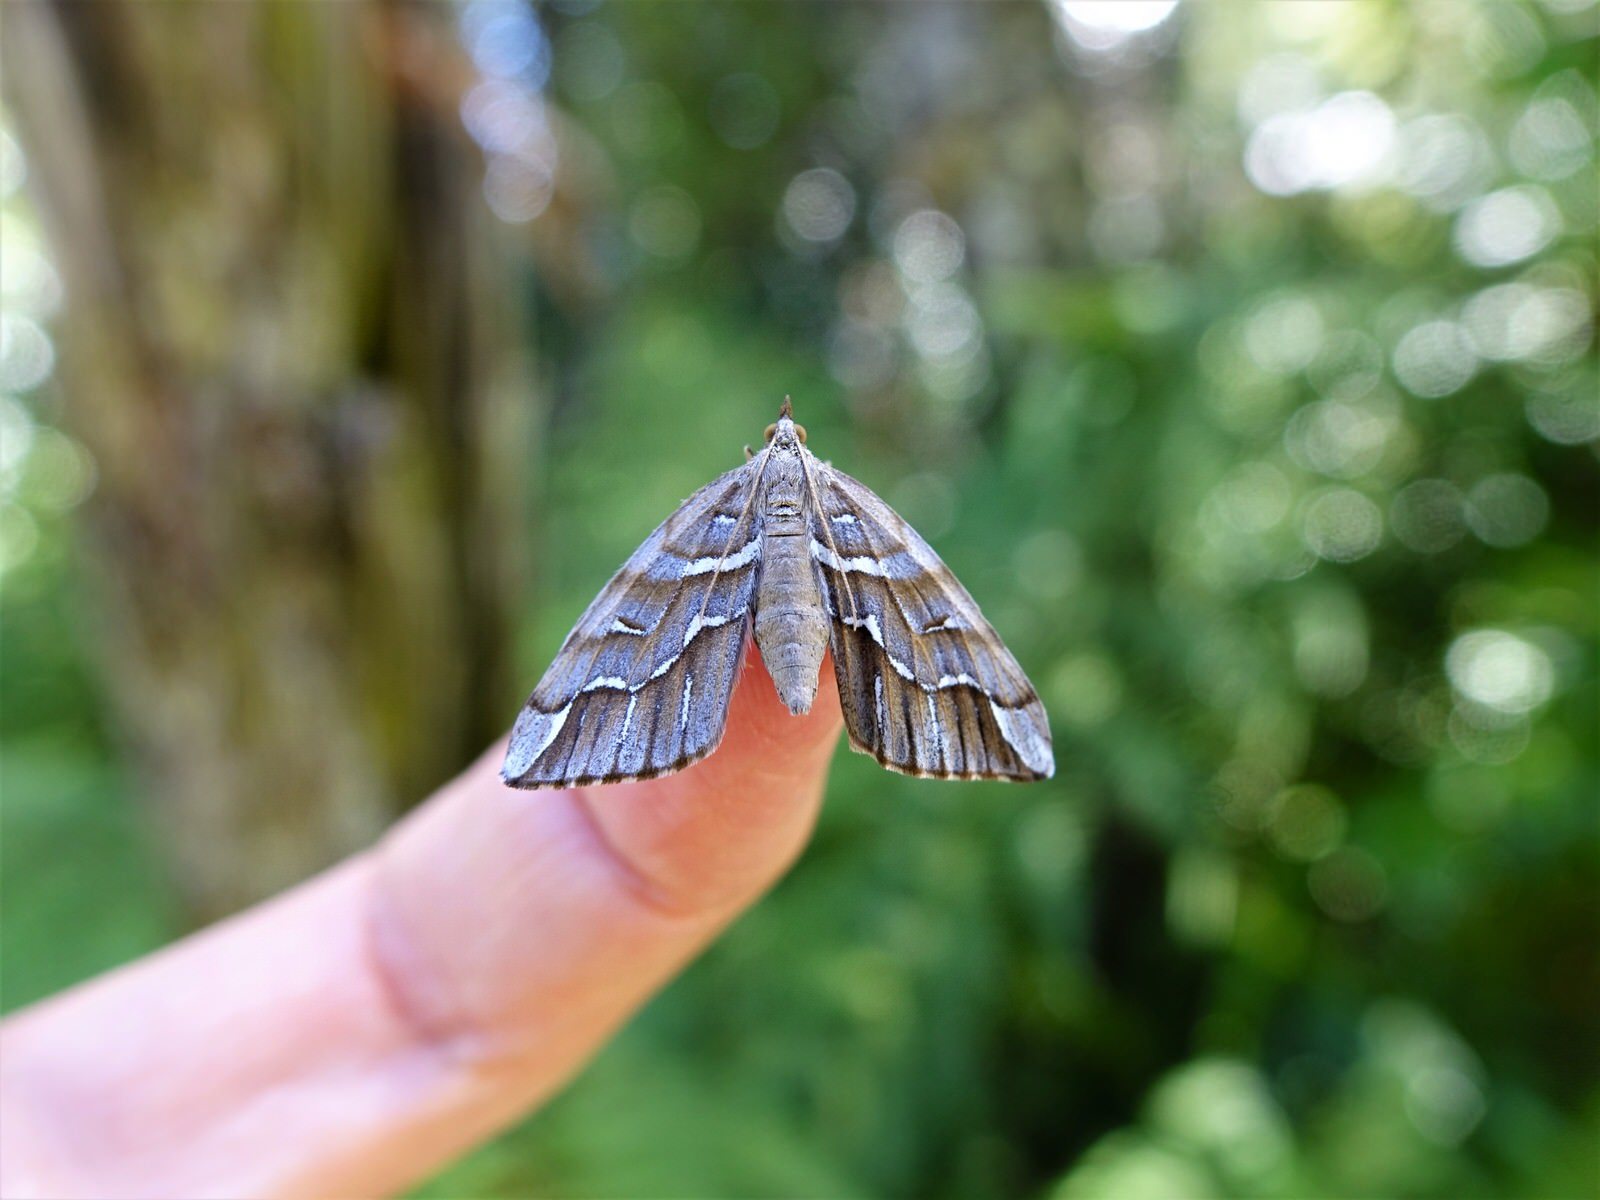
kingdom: Animalia
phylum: Arthropoda
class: Insecta
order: Lepidoptera
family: Geometridae
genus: Chalastra
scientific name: Chalastra aristarcha
